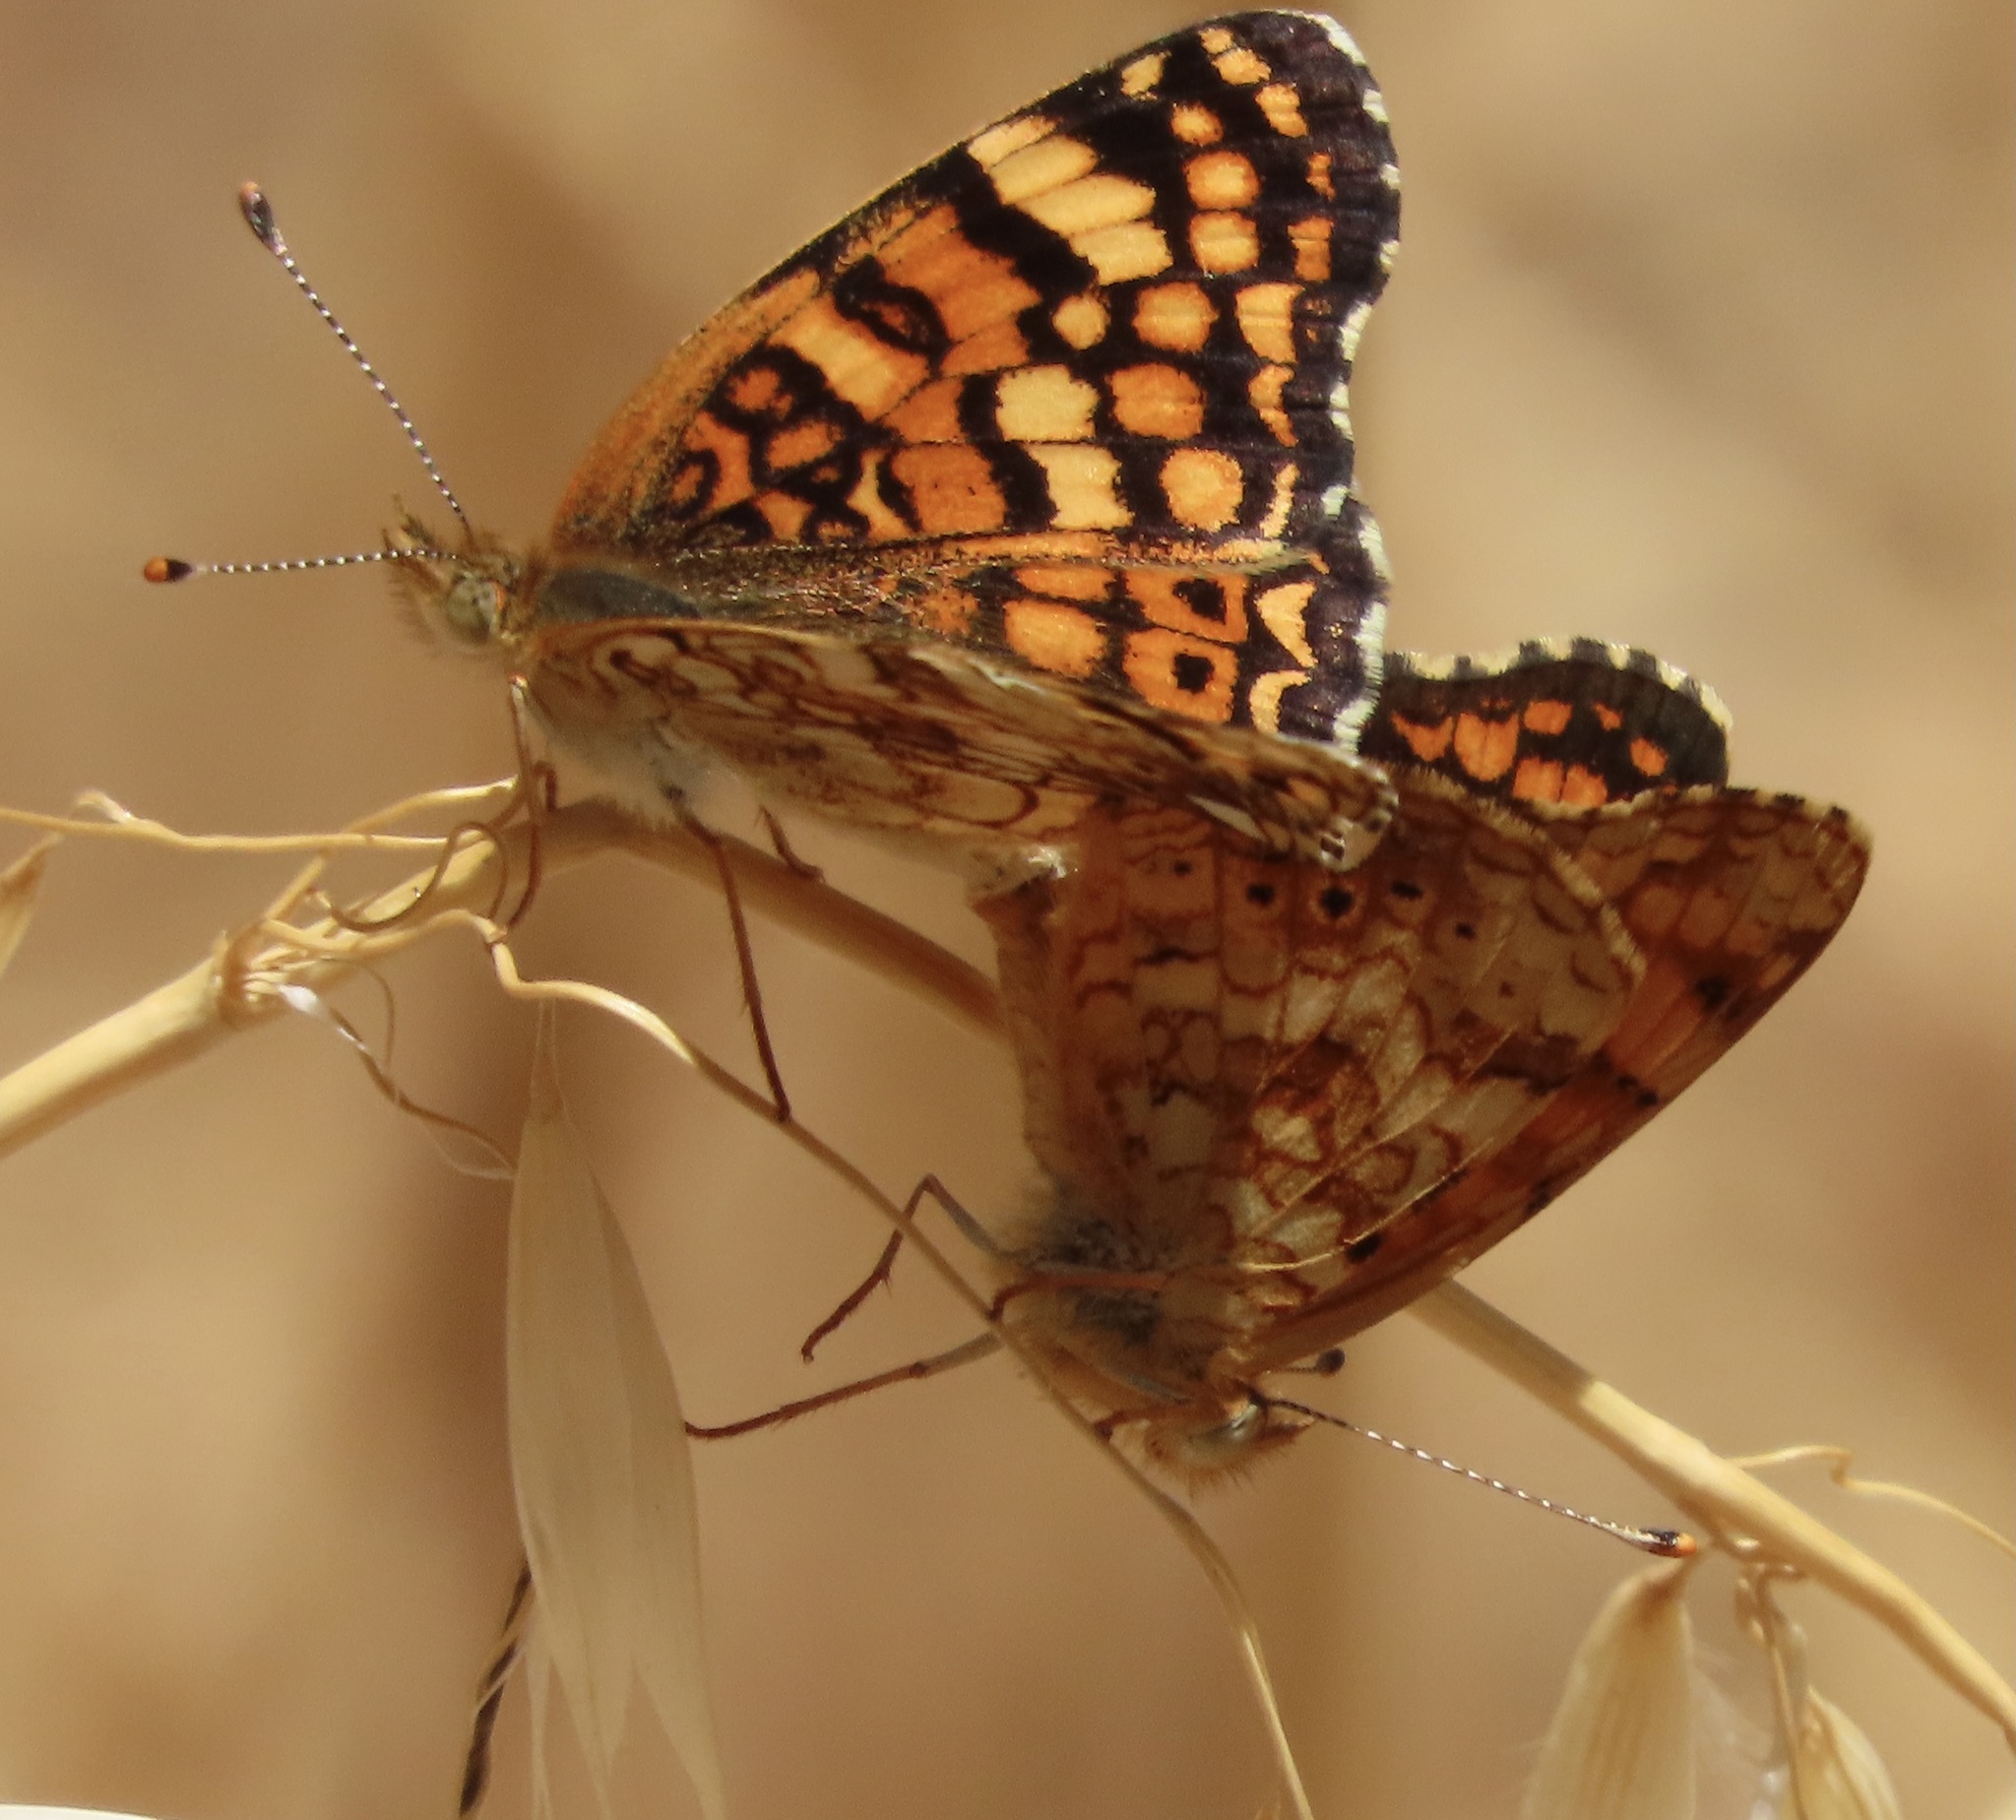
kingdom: Animalia
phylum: Arthropoda
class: Insecta
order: Lepidoptera
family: Nymphalidae
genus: Eresia
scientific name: Eresia aveyrona
